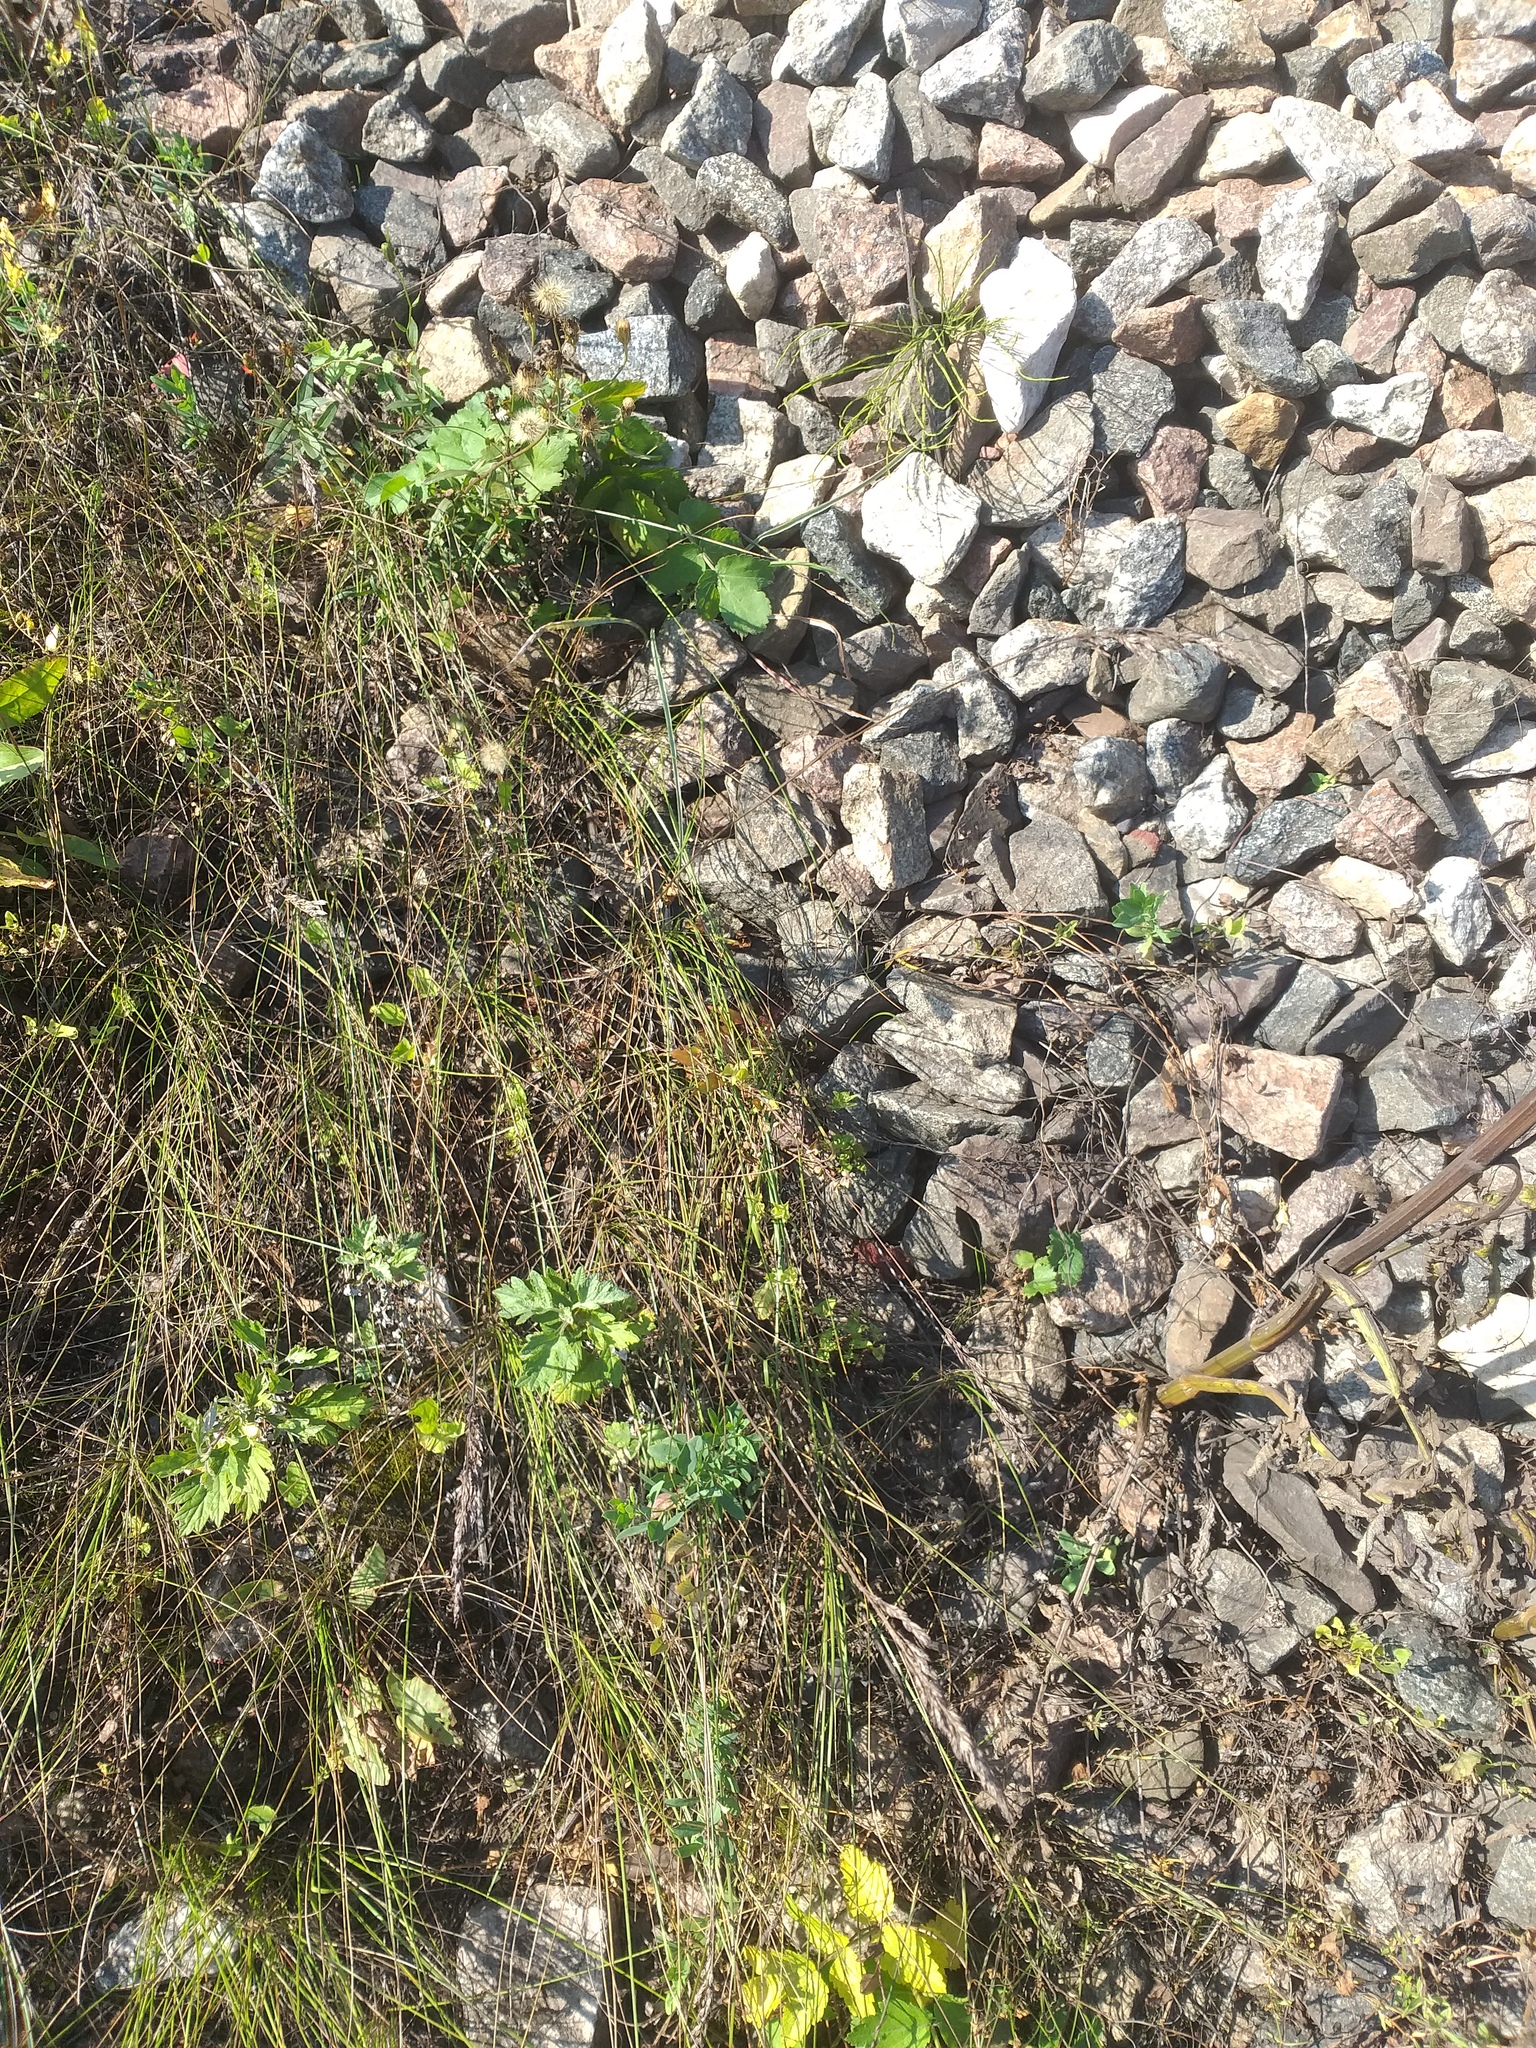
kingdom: Plantae
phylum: Tracheophyta
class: Liliopsida
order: Poales
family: Poaceae
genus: Poa
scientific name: Poa angustifolia
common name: Narrow-leaved meadow-grass
